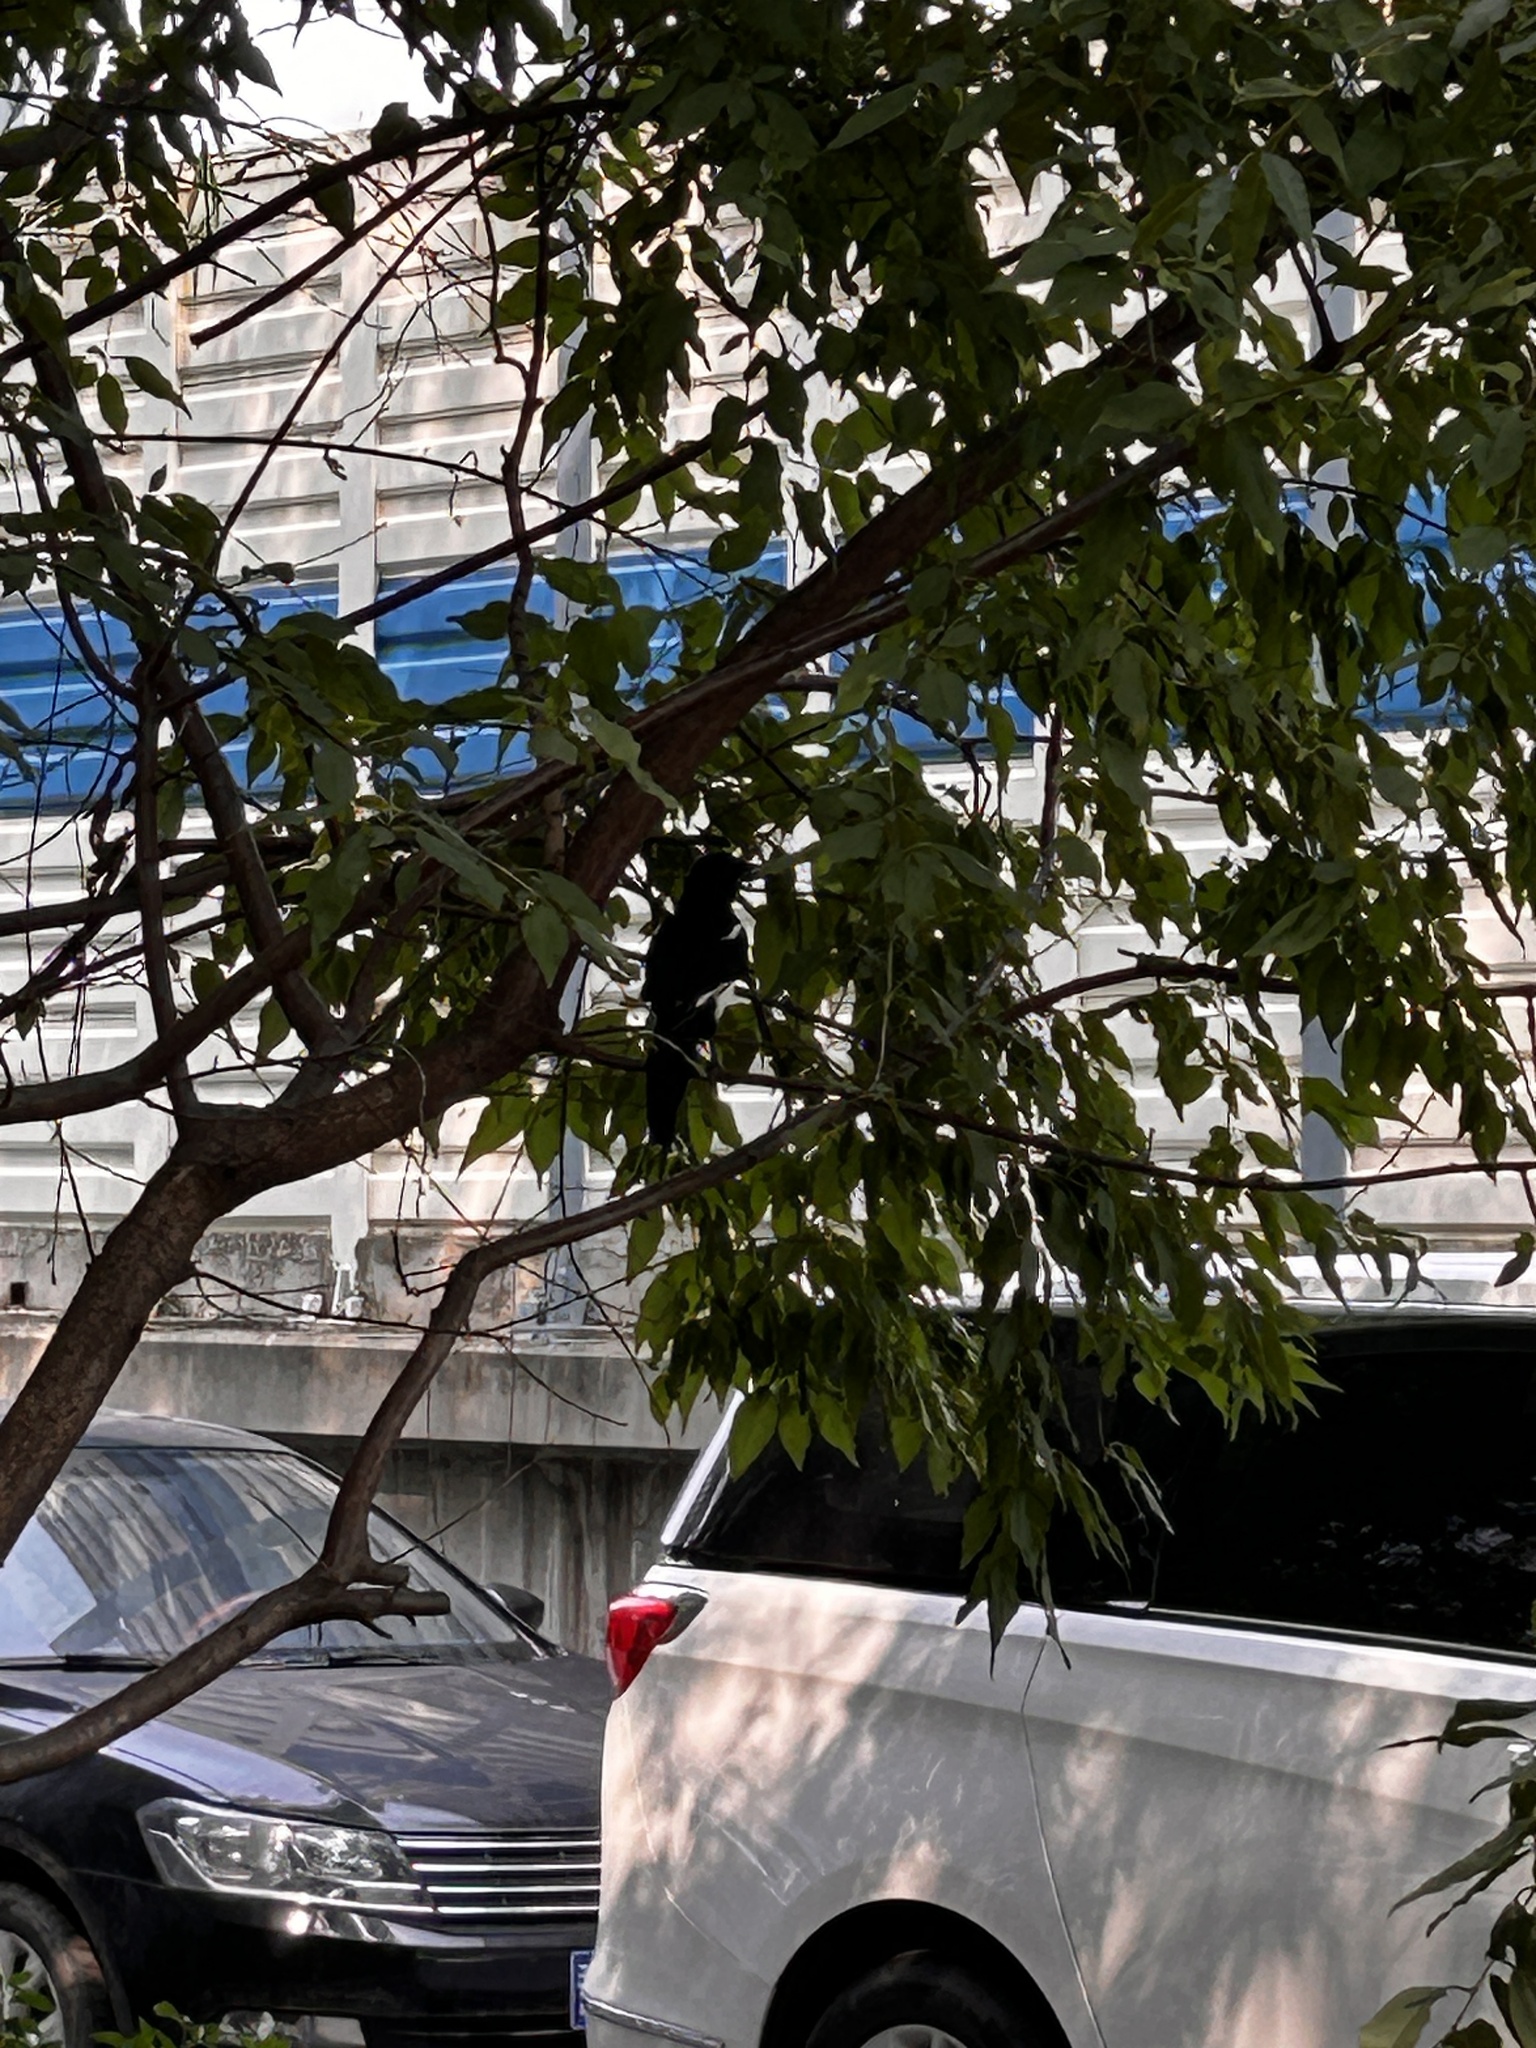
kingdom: Animalia
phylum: Chordata
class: Aves
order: Passeriformes
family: Corvidae
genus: Pica
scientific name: Pica serica
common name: Oriental magpie
